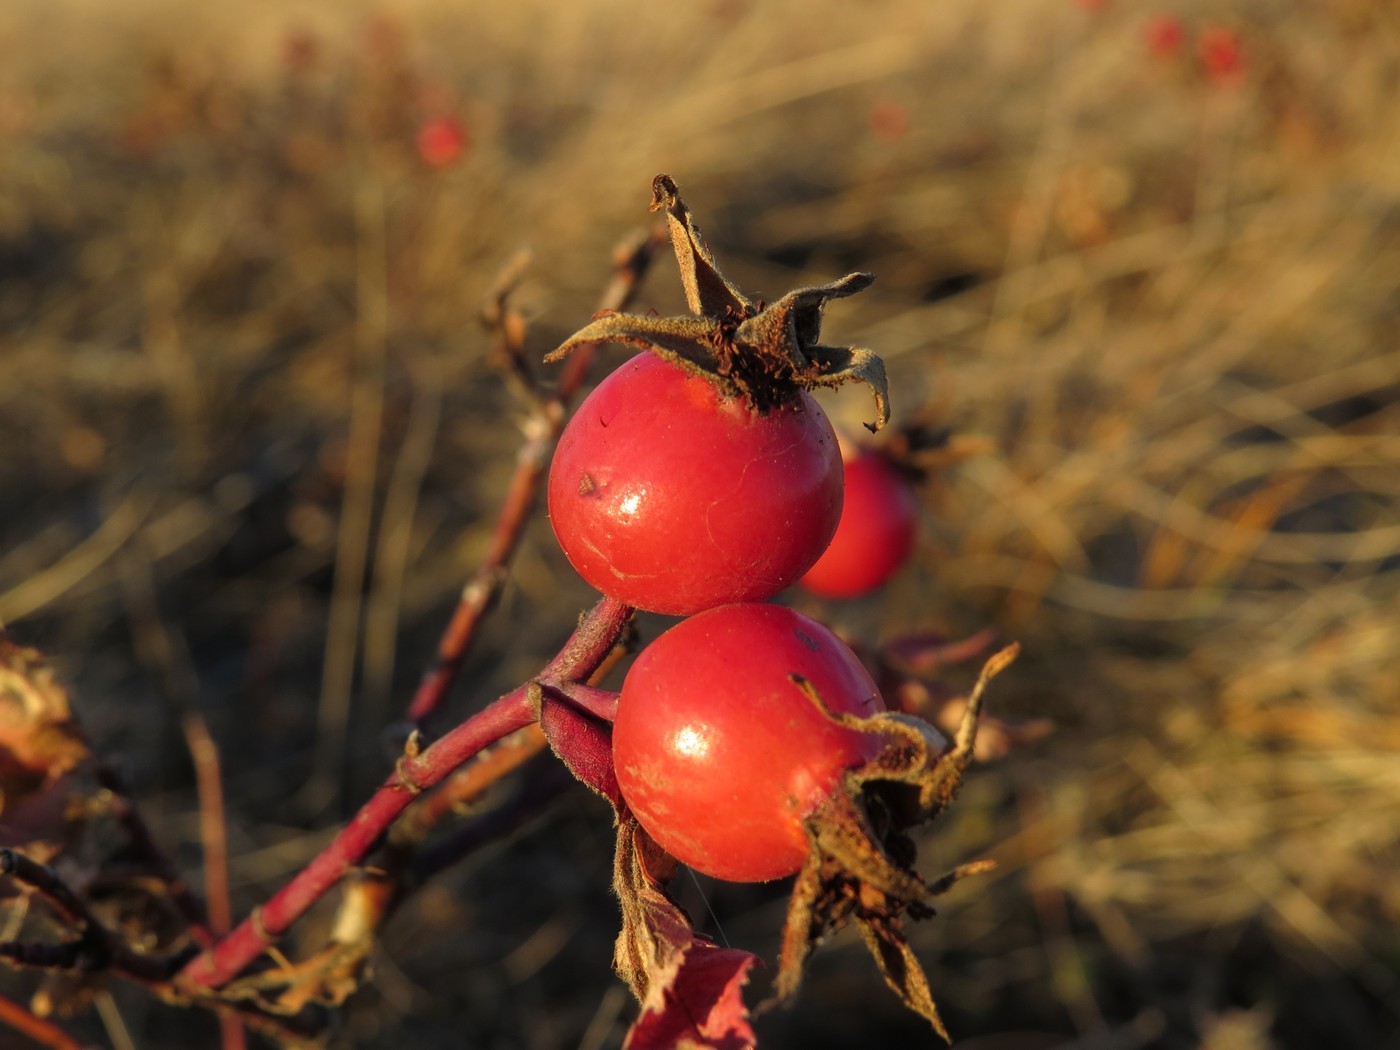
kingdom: Plantae
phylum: Tracheophyta
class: Magnoliopsida
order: Rosales
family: Rosaceae
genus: Rosa
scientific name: Rosa woodsii
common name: Woods's rose
